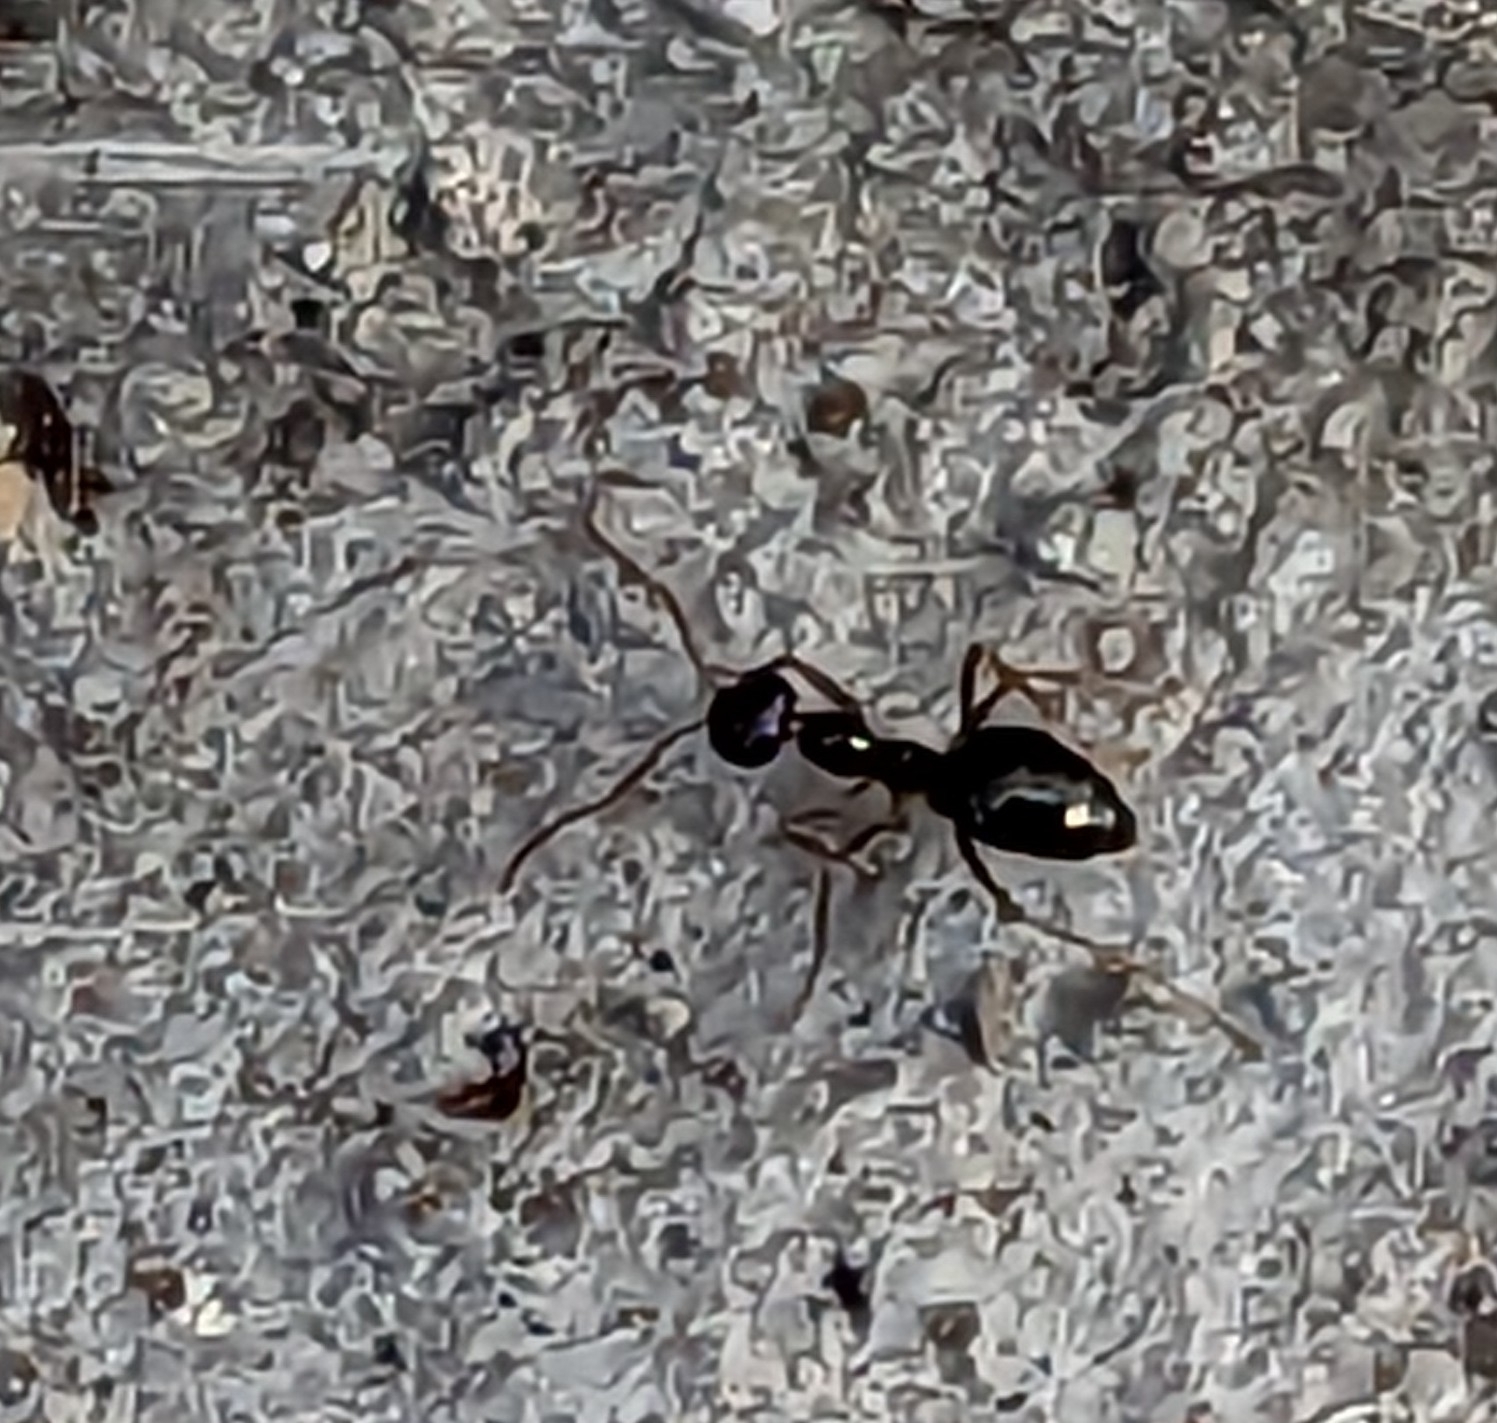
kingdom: Animalia
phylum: Arthropoda
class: Insecta
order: Hymenoptera
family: Formicidae
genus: Prenolepis
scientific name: Prenolepis imparis
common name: Small honey ant
